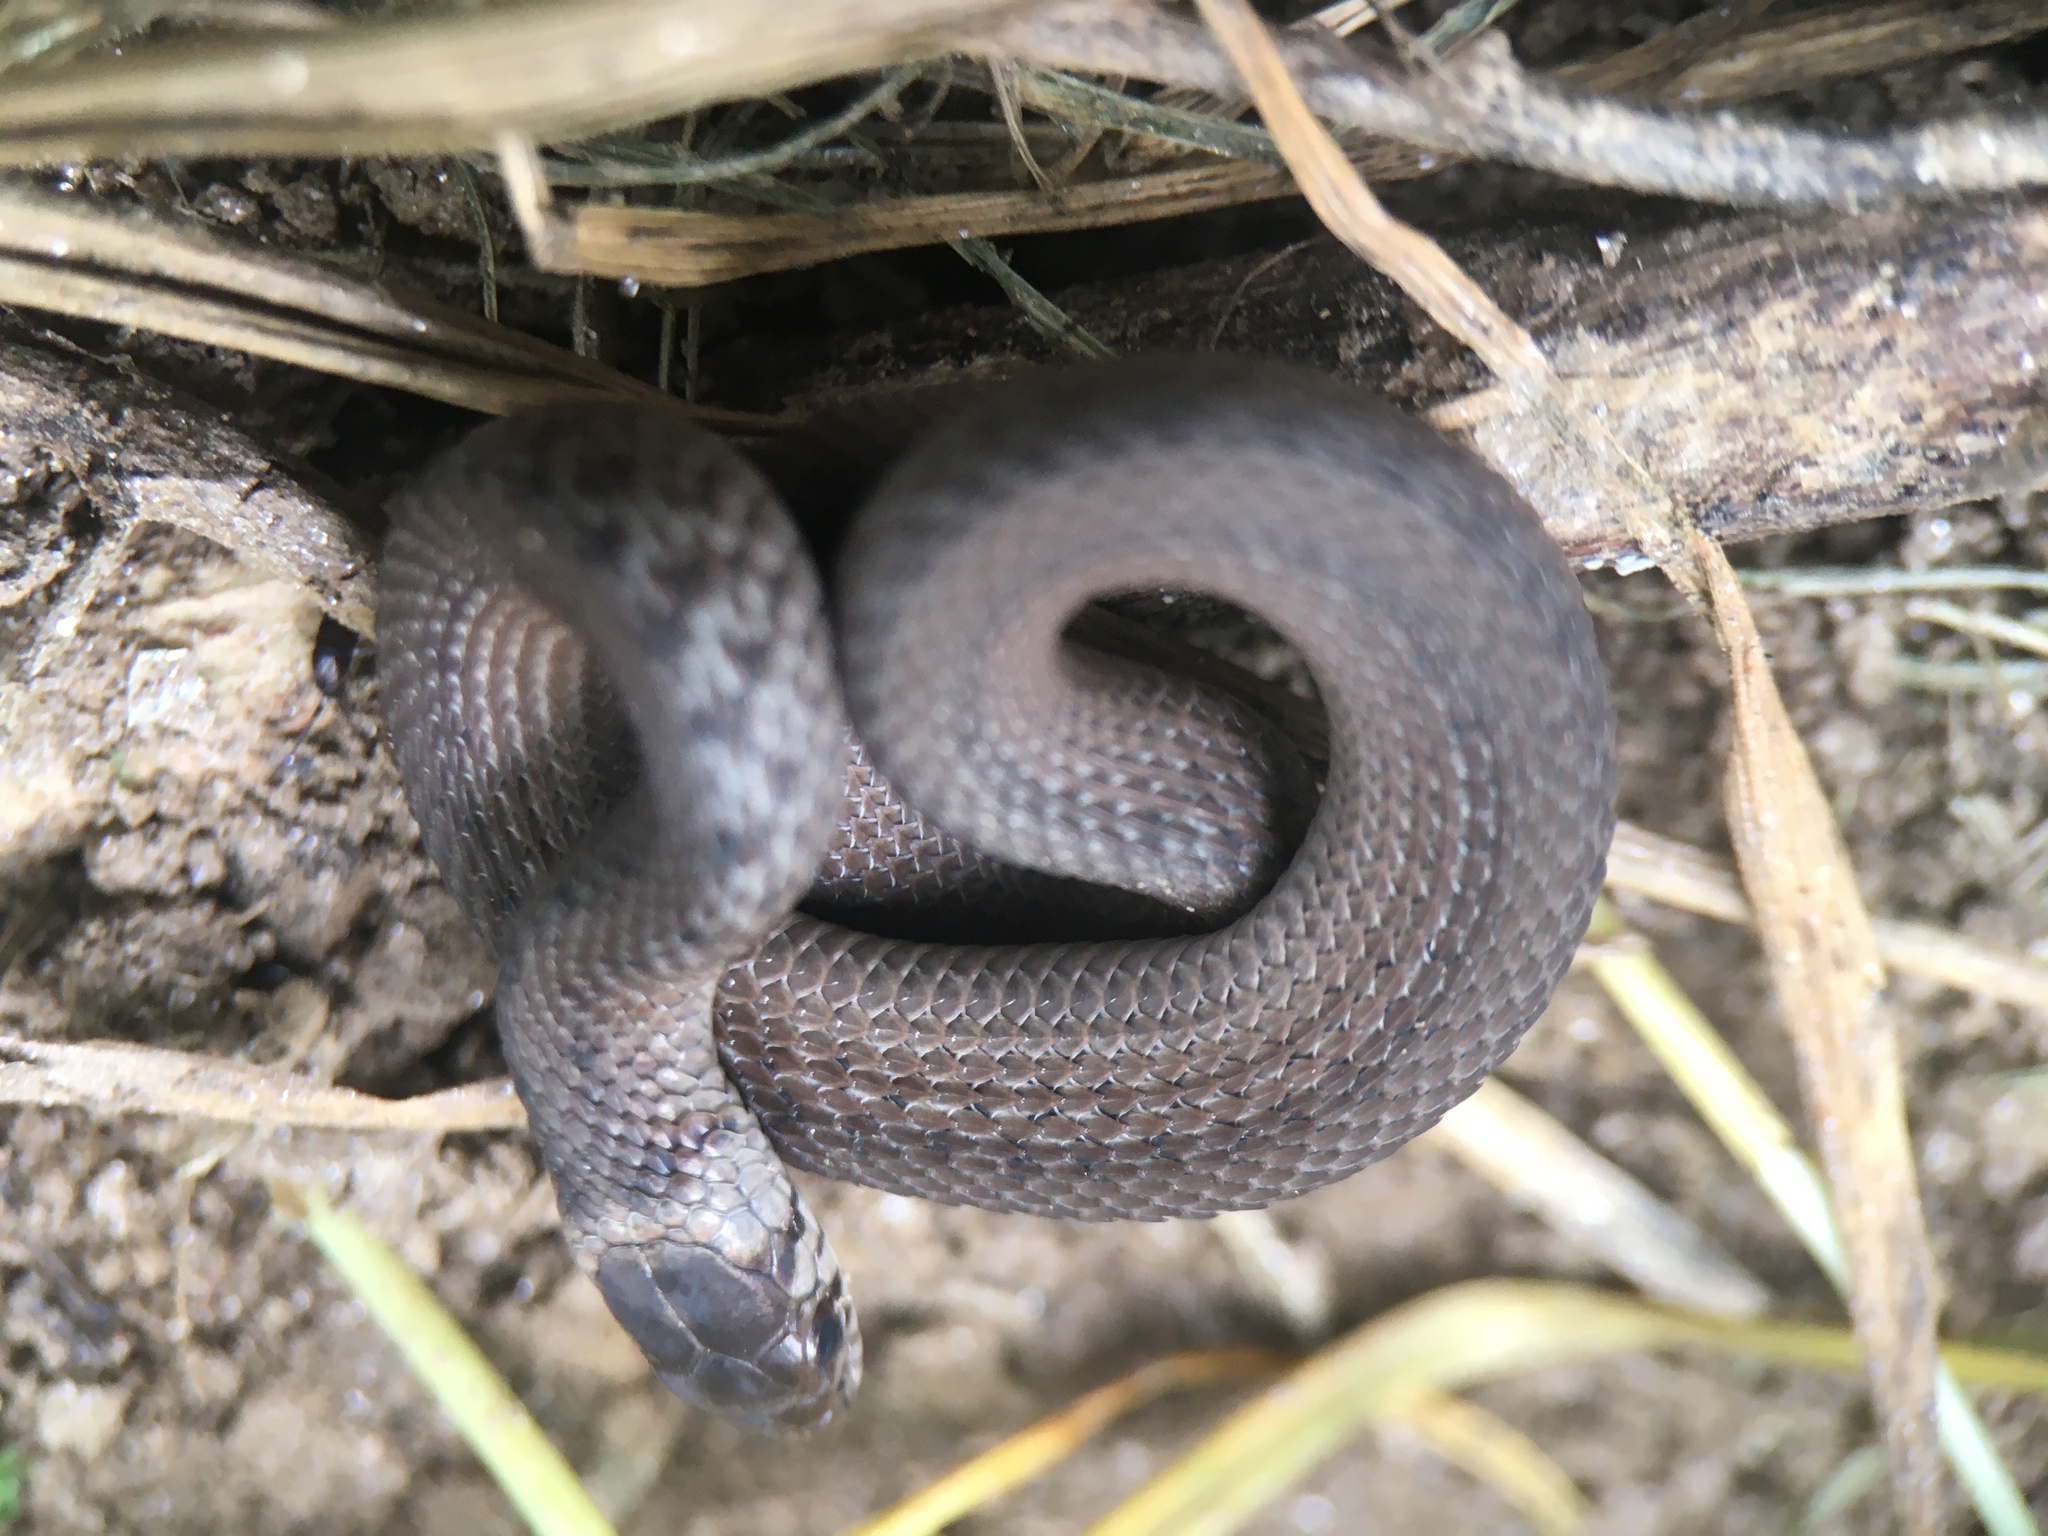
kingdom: Animalia
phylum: Chordata
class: Squamata
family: Colubridae
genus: Storeria
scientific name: Storeria dekayi
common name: (dekay’s) brown snake
